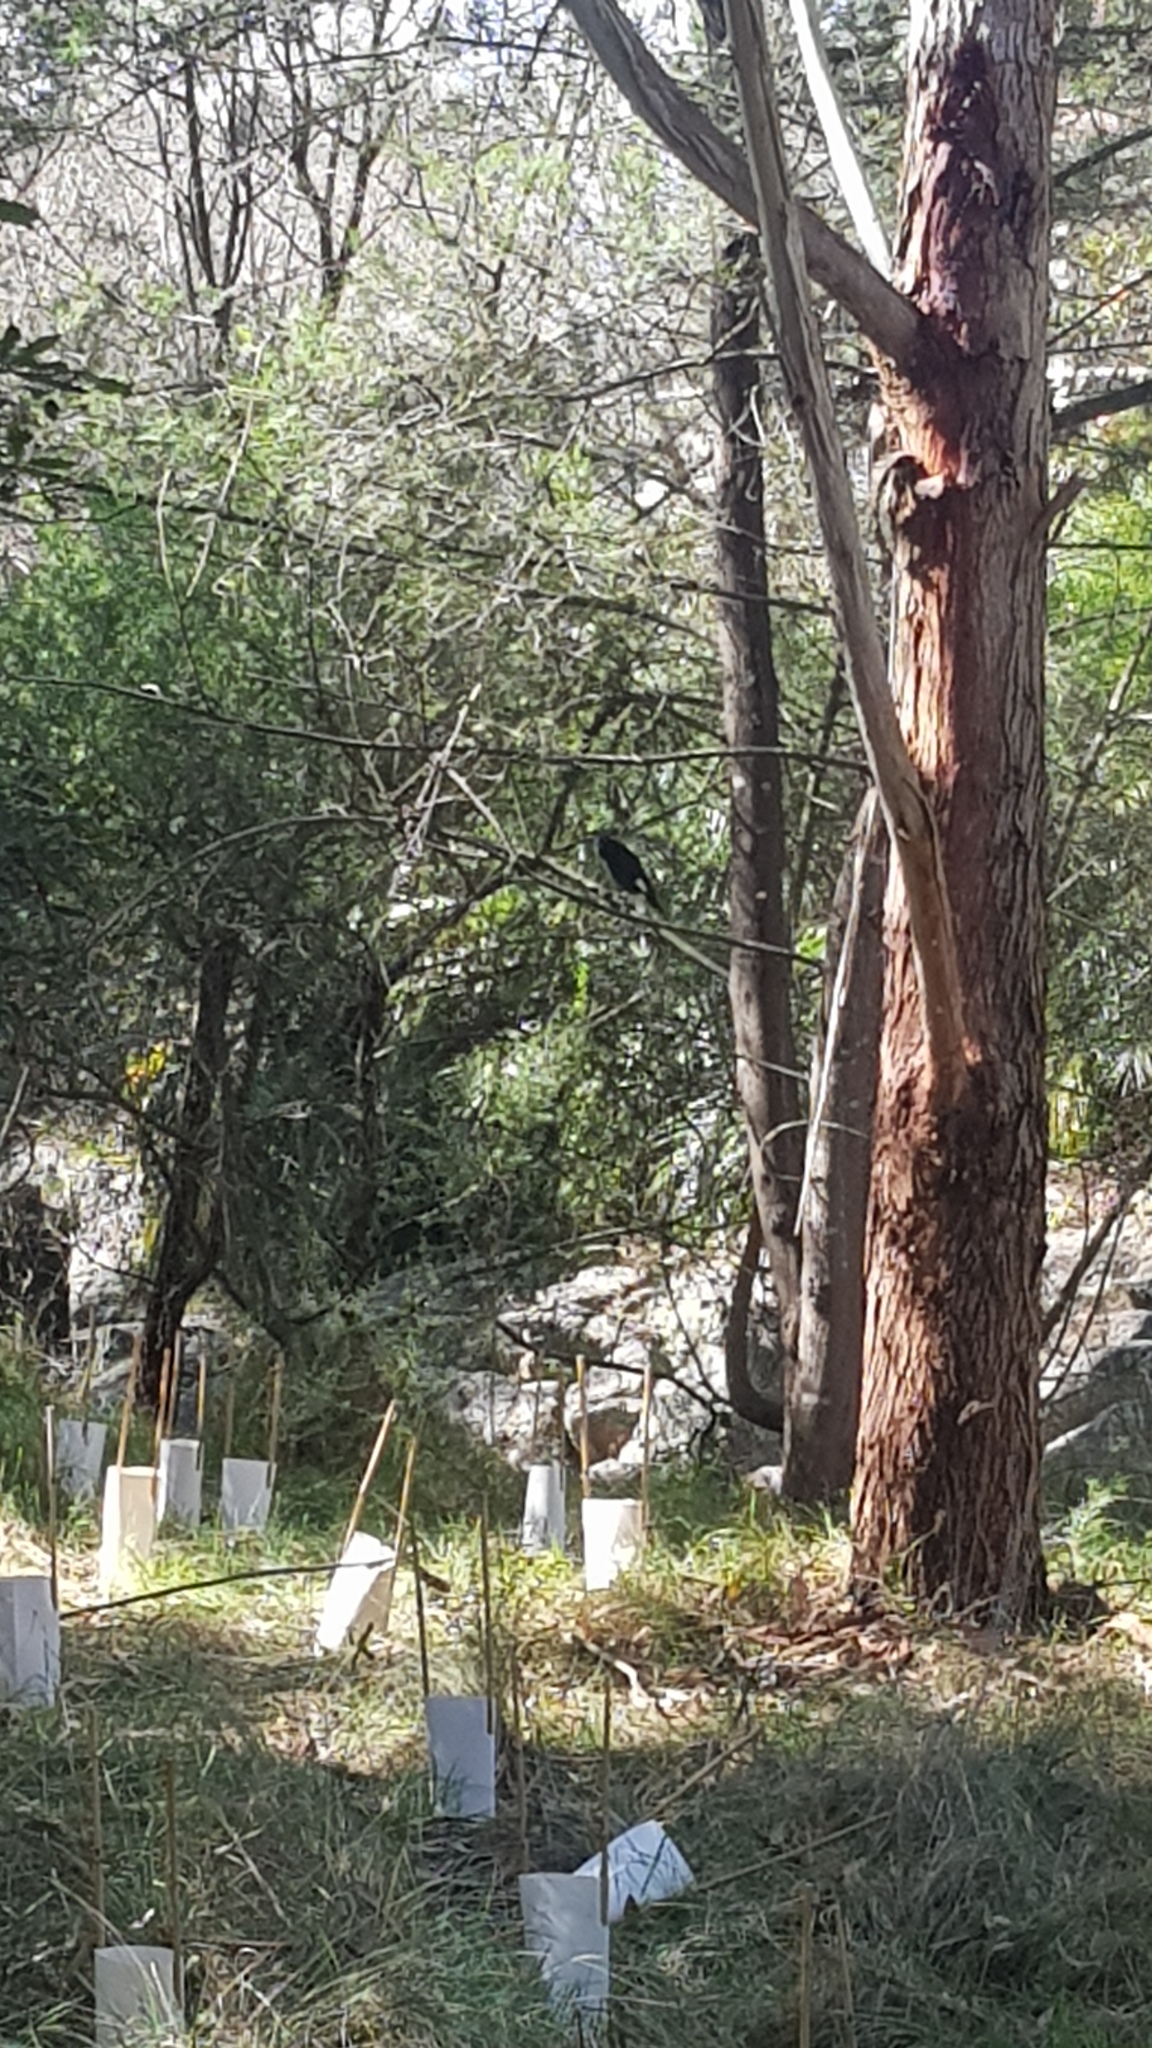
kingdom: Animalia
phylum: Chordata
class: Aves
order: Passeriformes
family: Cracticidae
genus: Strepera
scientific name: Strepera graculina
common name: Pied currawong
